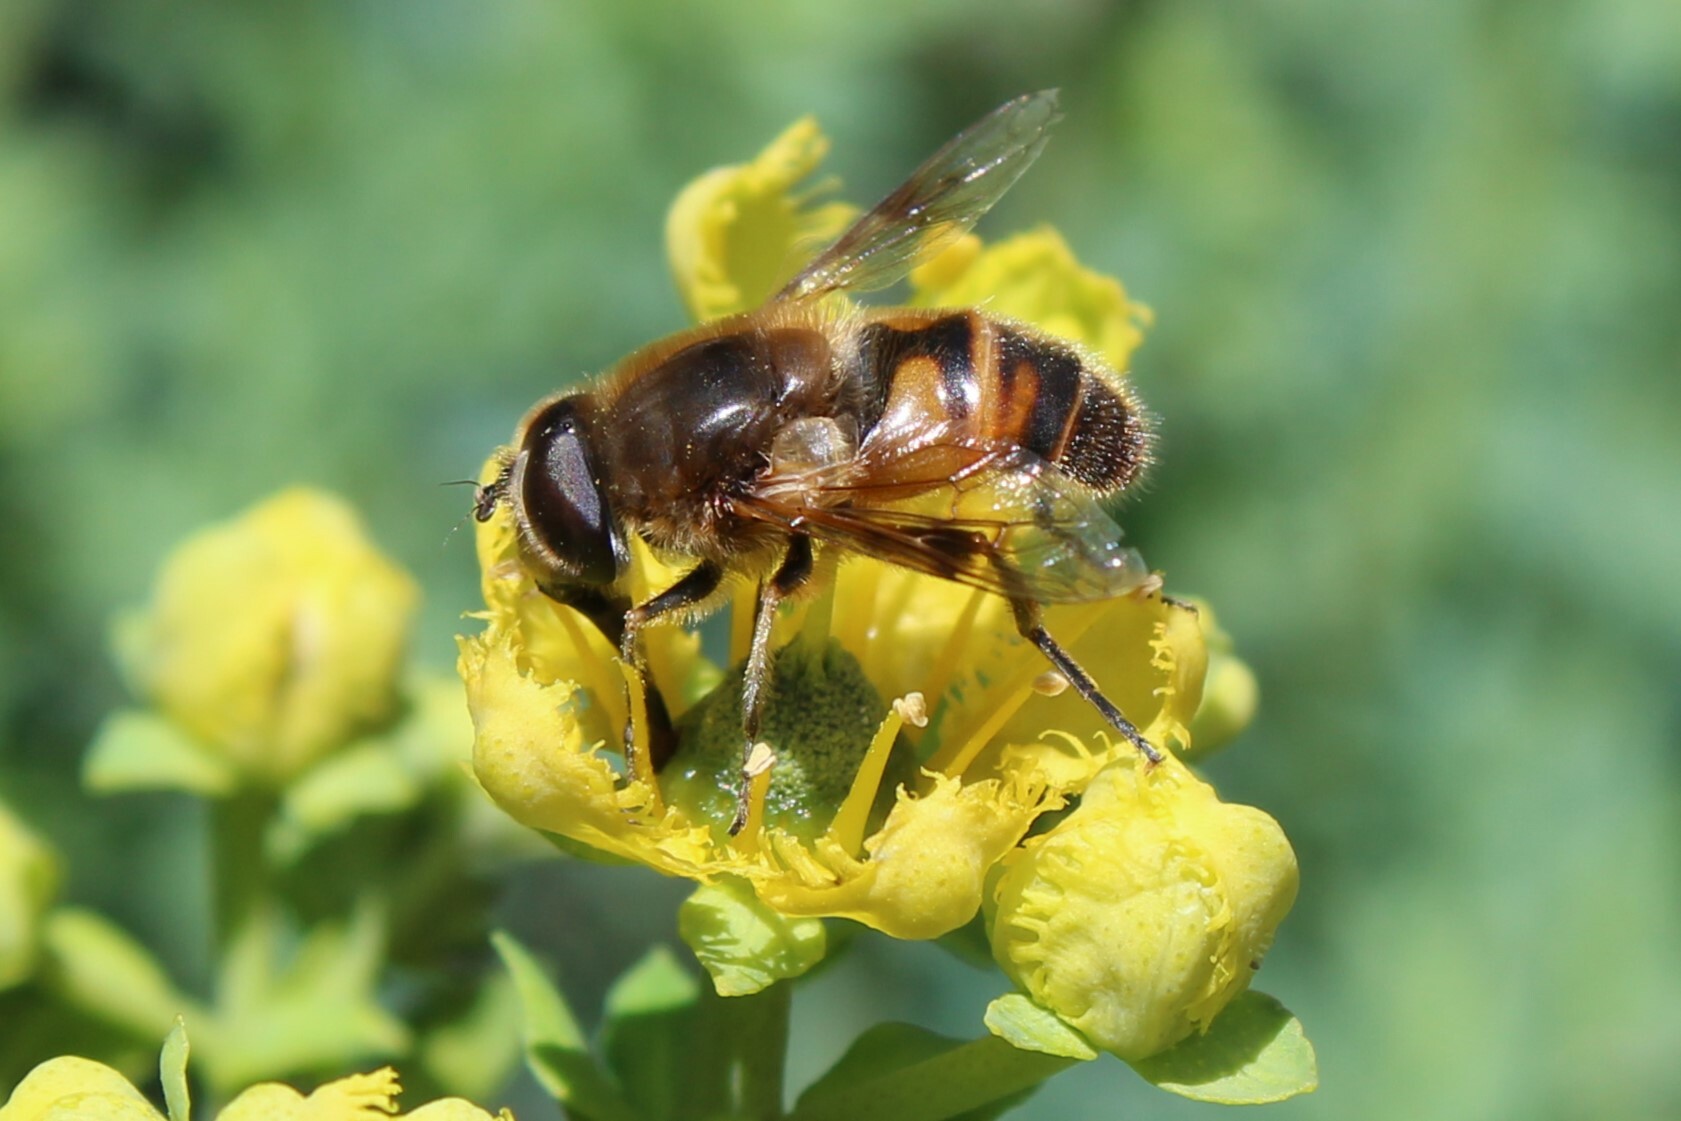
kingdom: Animalia
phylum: Arthropoda
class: Insecta
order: Diptera
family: Syrphidae
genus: Eristalis
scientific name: Eristalis tenax
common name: Drone fly
